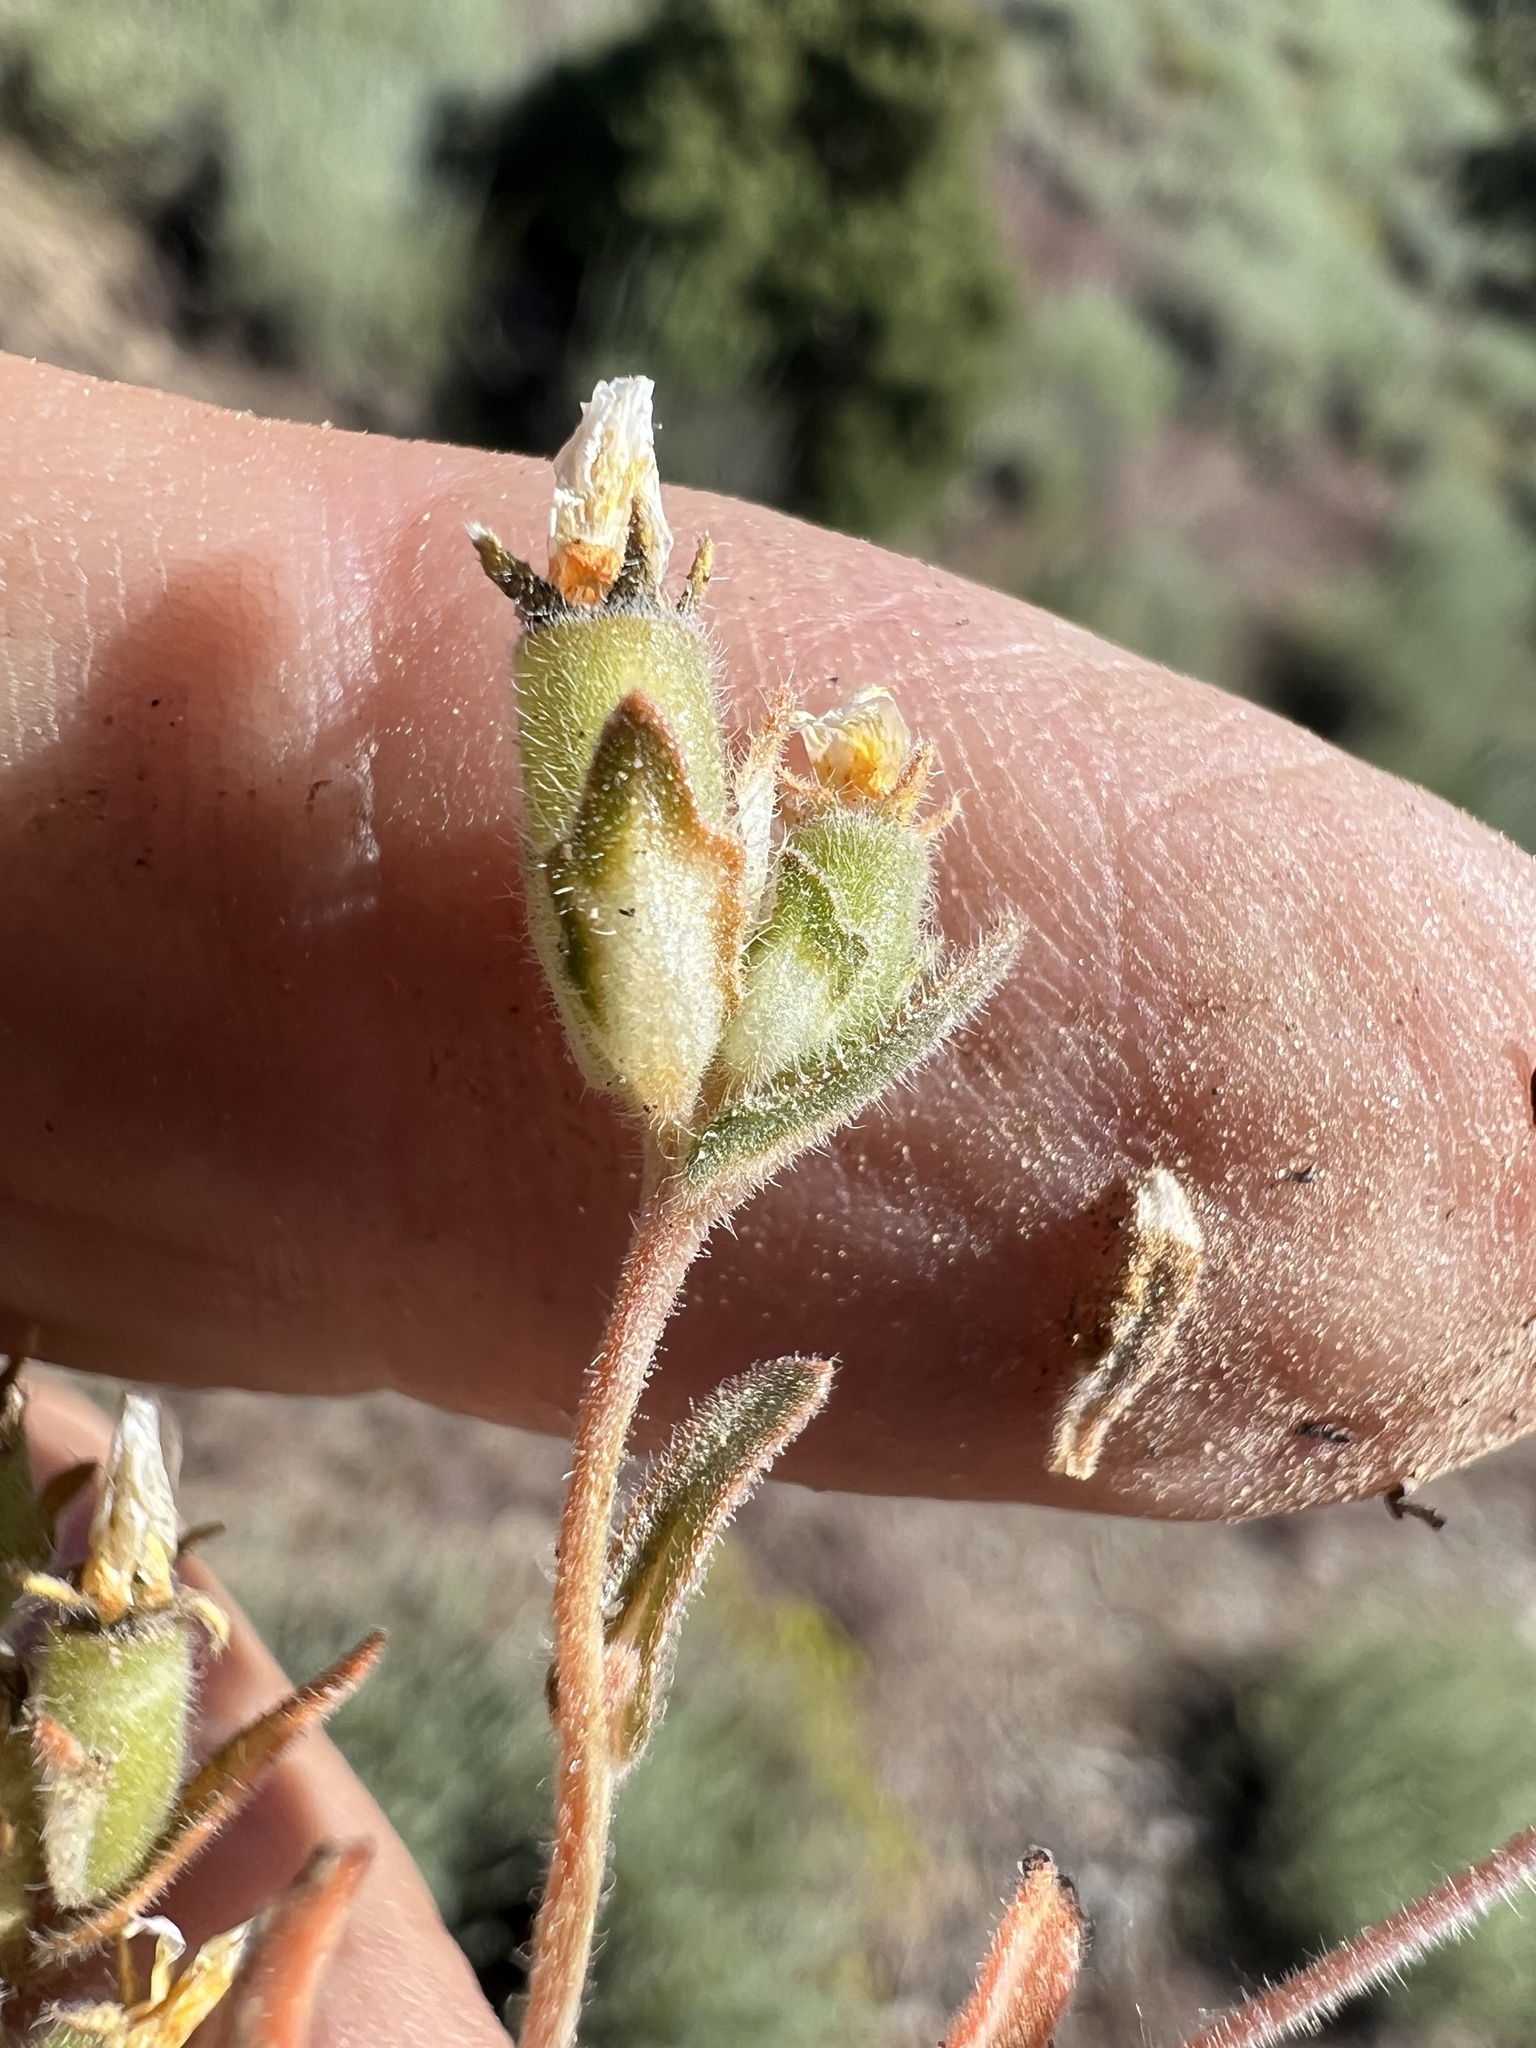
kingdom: Plantae
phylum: Tracheophyta
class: Magnoliopsida
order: Cornales
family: Loasaceae
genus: Mentzelia
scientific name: Mentzelia montana
